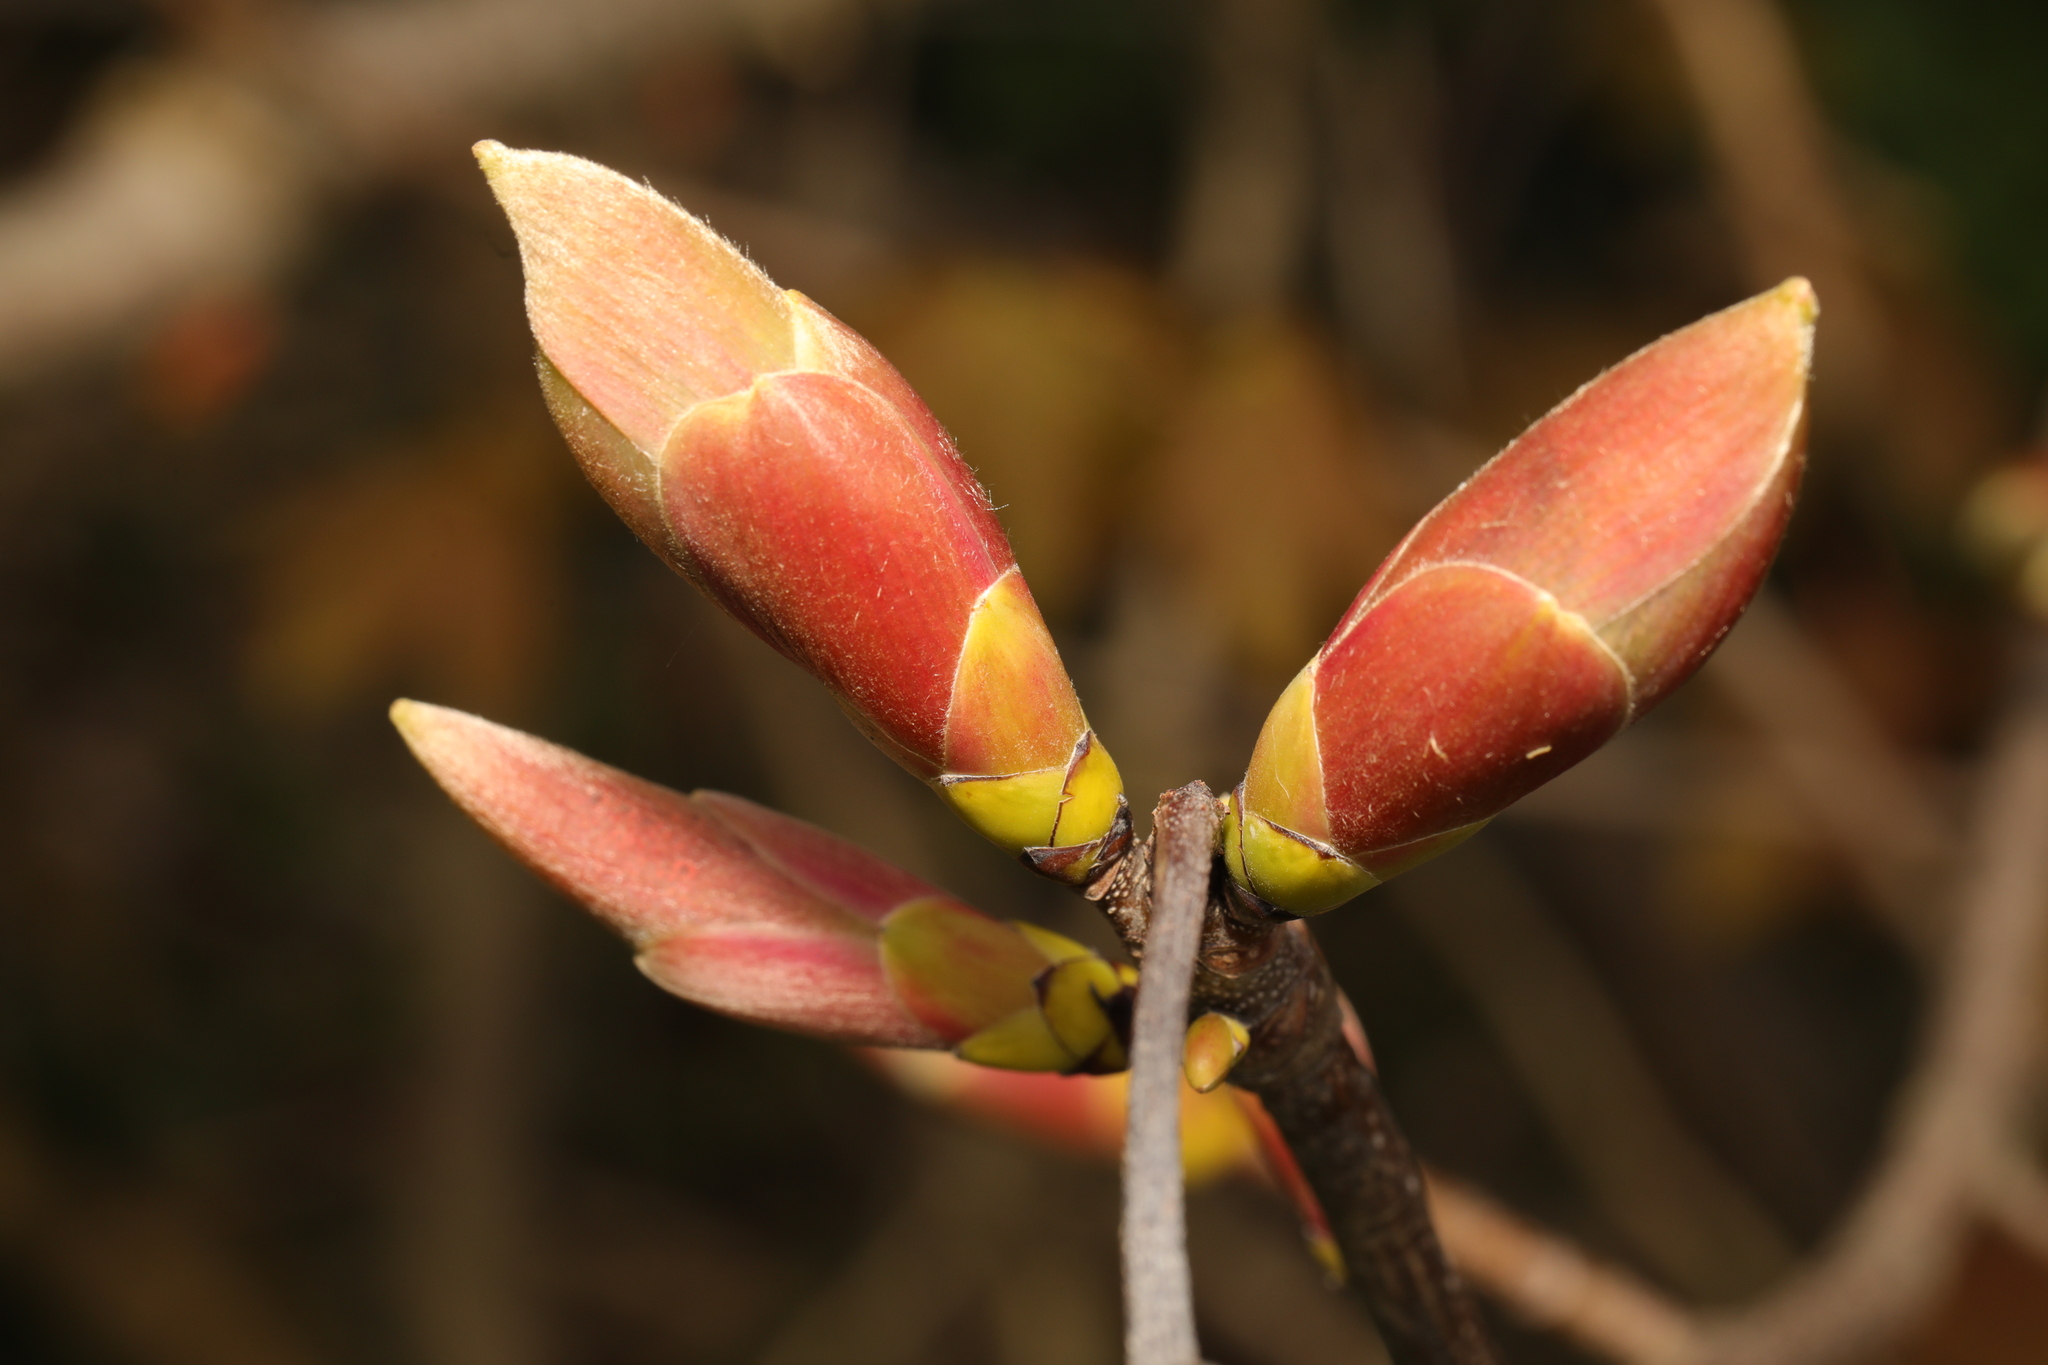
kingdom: Plantae
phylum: Tracheophyta
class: Magnoliopsida
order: Sapindales
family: Sapindaceae
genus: Acer
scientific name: Acer pseudoplatanus
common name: Sycamore
